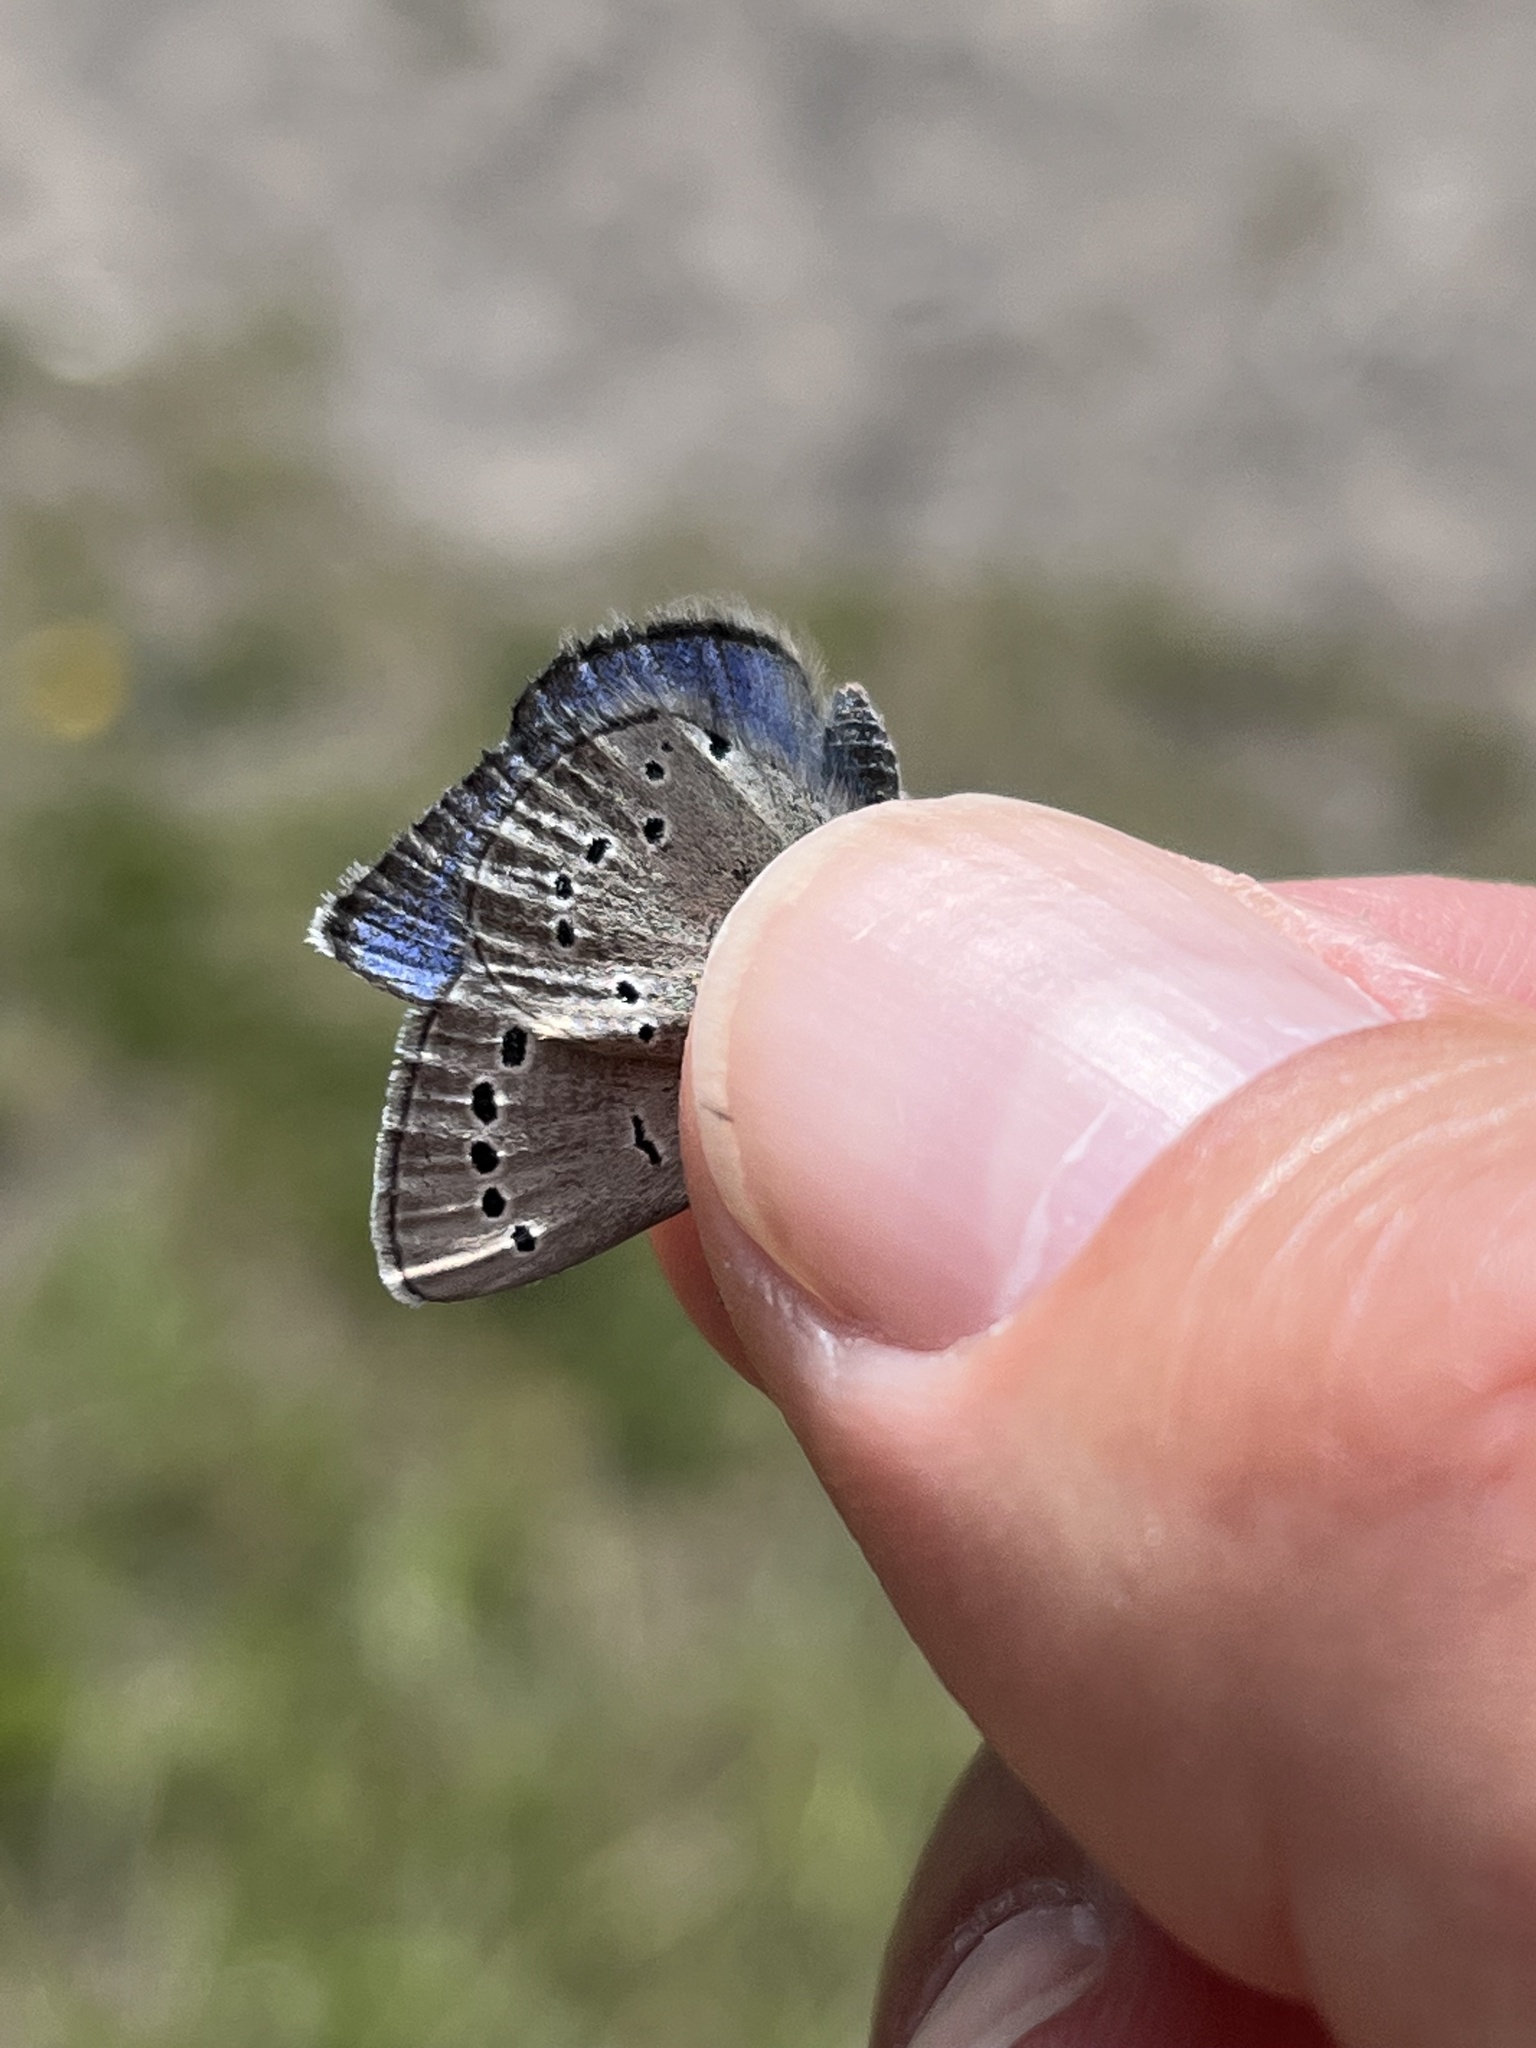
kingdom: Animalia
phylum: Arthropoda
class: Insecta
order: Lepidoptera
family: Lycaenidae
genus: Glaucopsyche
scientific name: Glaucopsyche lygdamus
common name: Silvery blue
